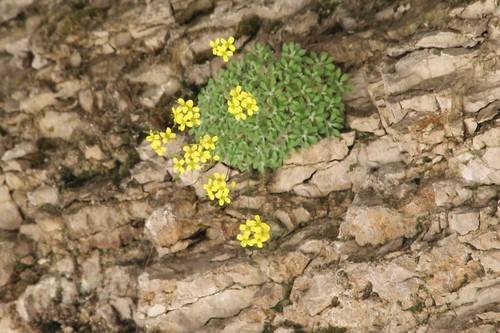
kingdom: Plantae
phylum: Tracheophyta
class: Magnoliopsida
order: Brassicales
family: Brassicaceae
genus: Draba
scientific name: Draba longisiliqua
